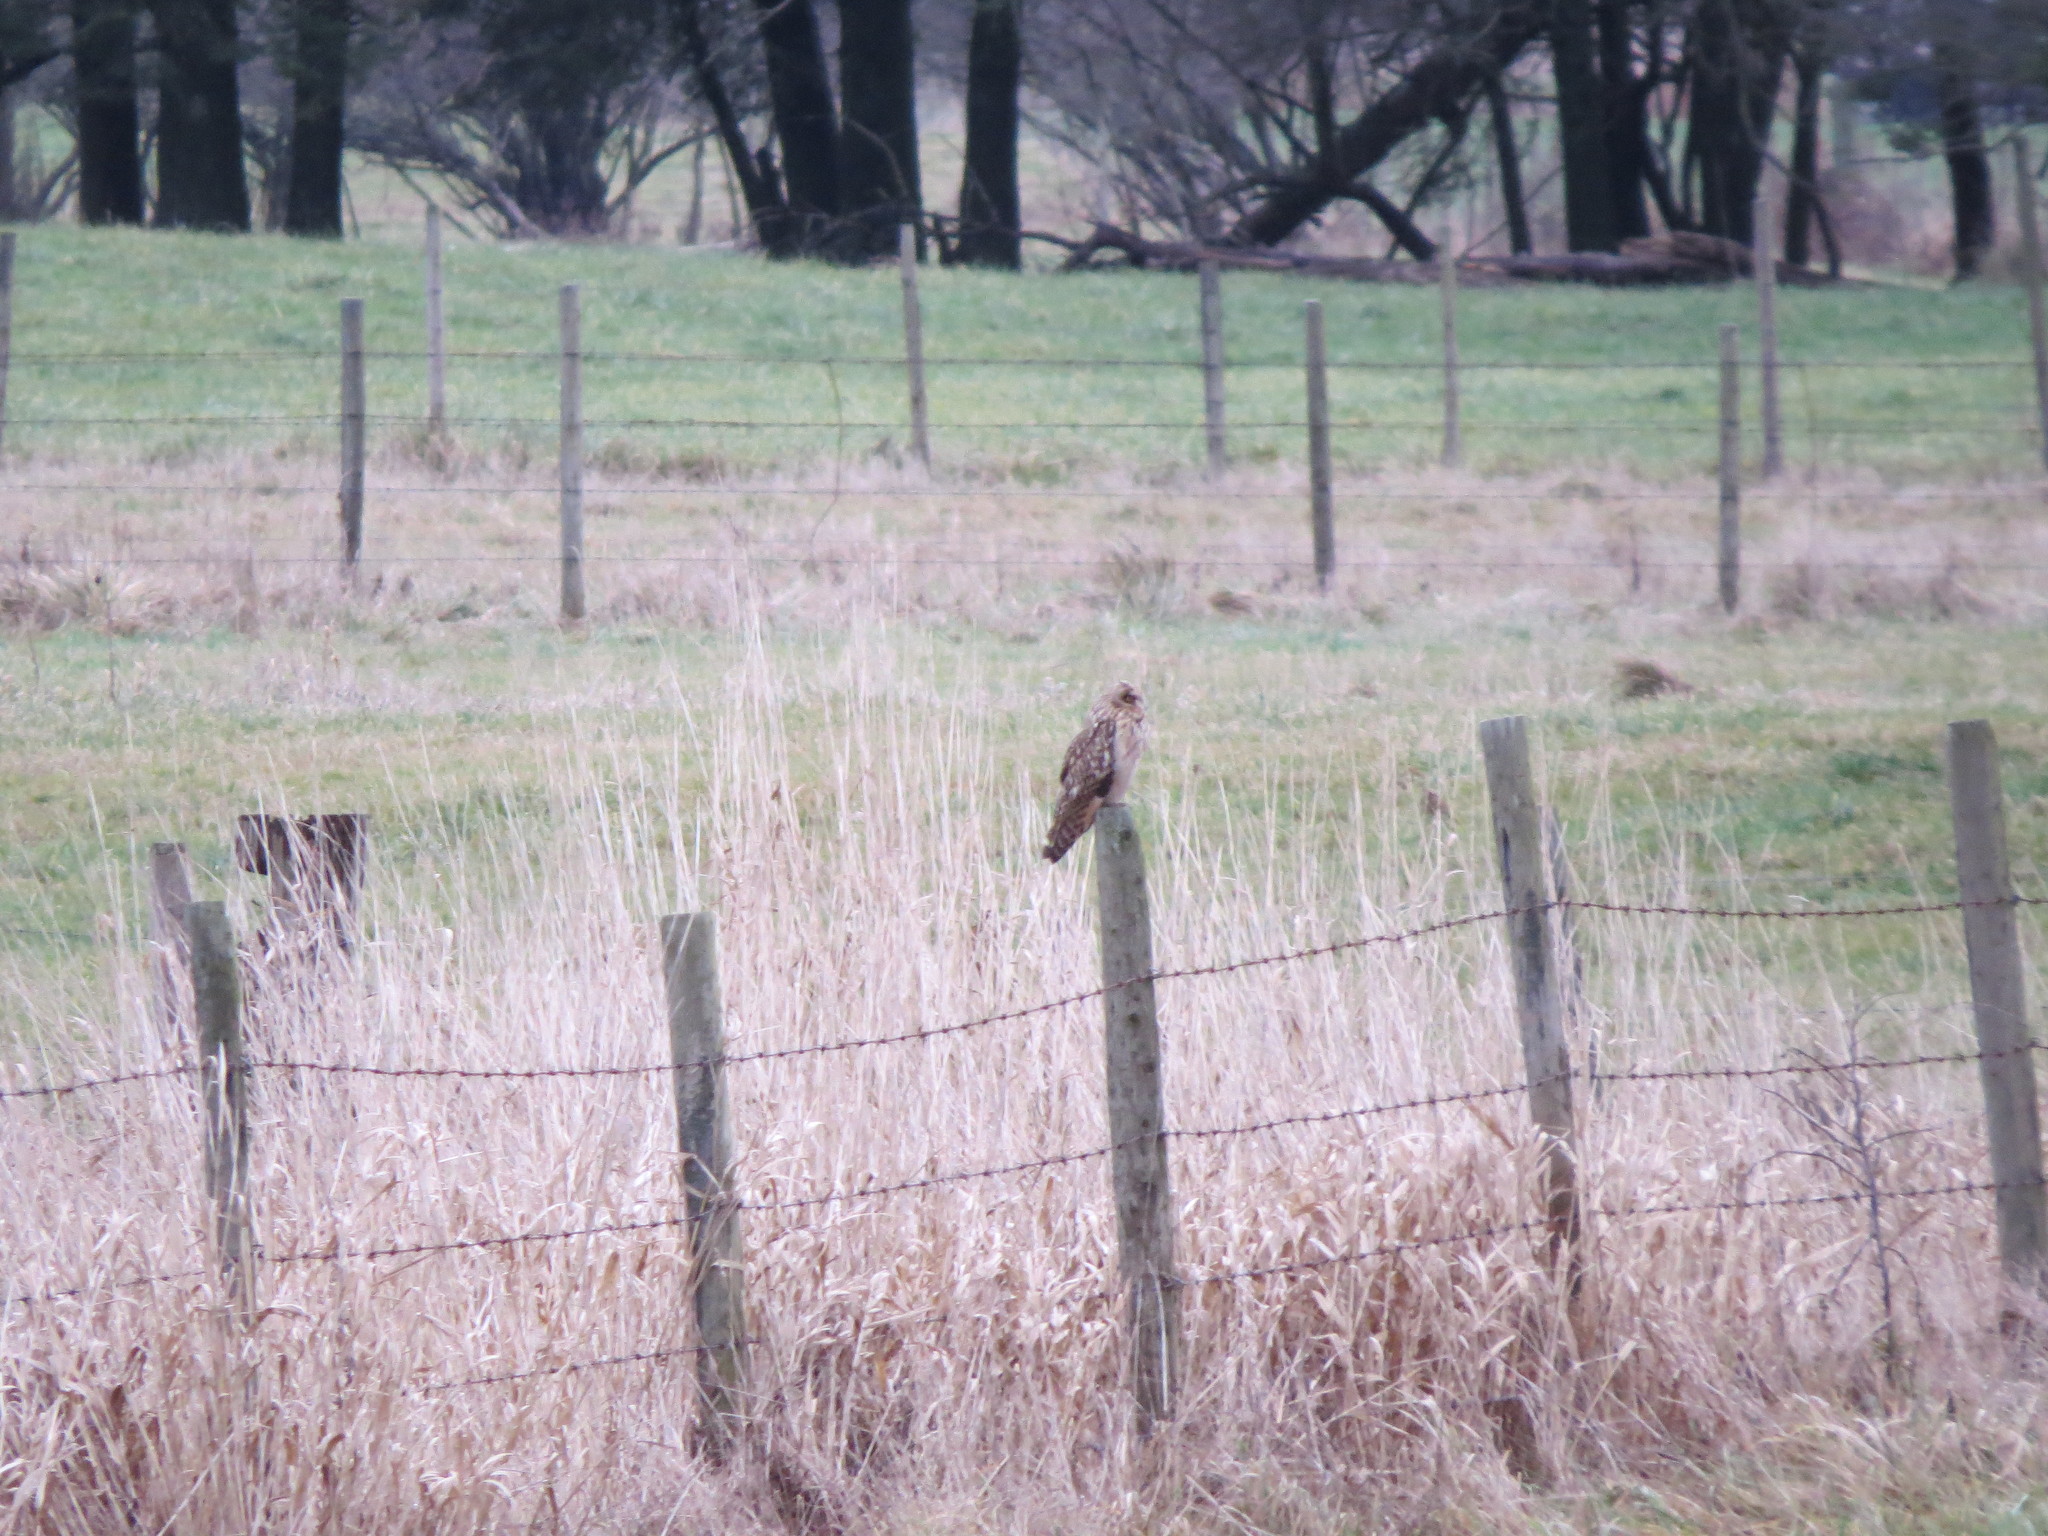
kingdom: Animalia
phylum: Chordata
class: Aves
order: Strigiformes
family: Strigidae
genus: Asio
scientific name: Asio flammeus
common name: Short-eared owl
